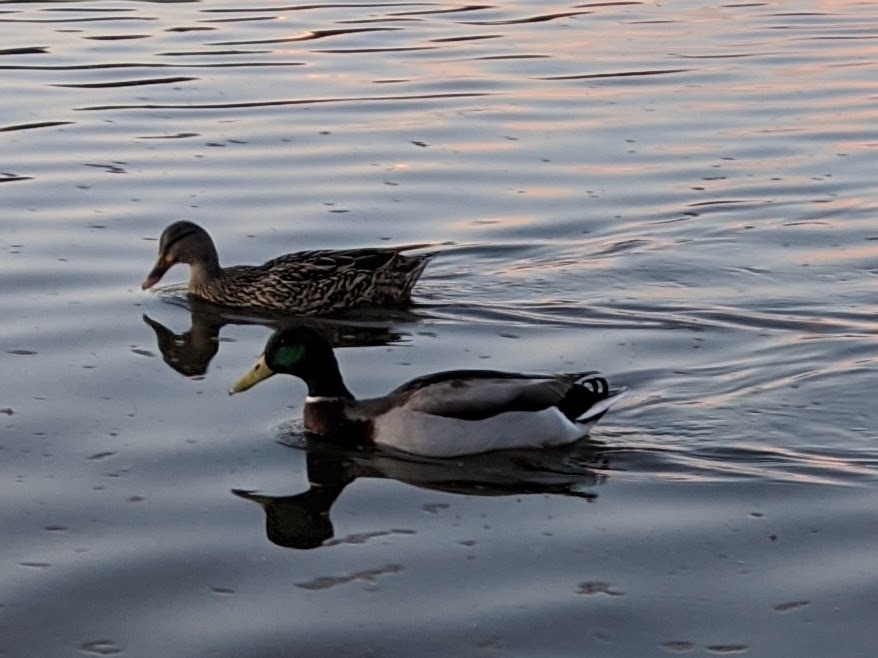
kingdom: Animalia
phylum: Chordata
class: Aves
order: Anseriformes
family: Anatidae
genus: Anas
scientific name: Anas platyrhynchos
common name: Mallard
